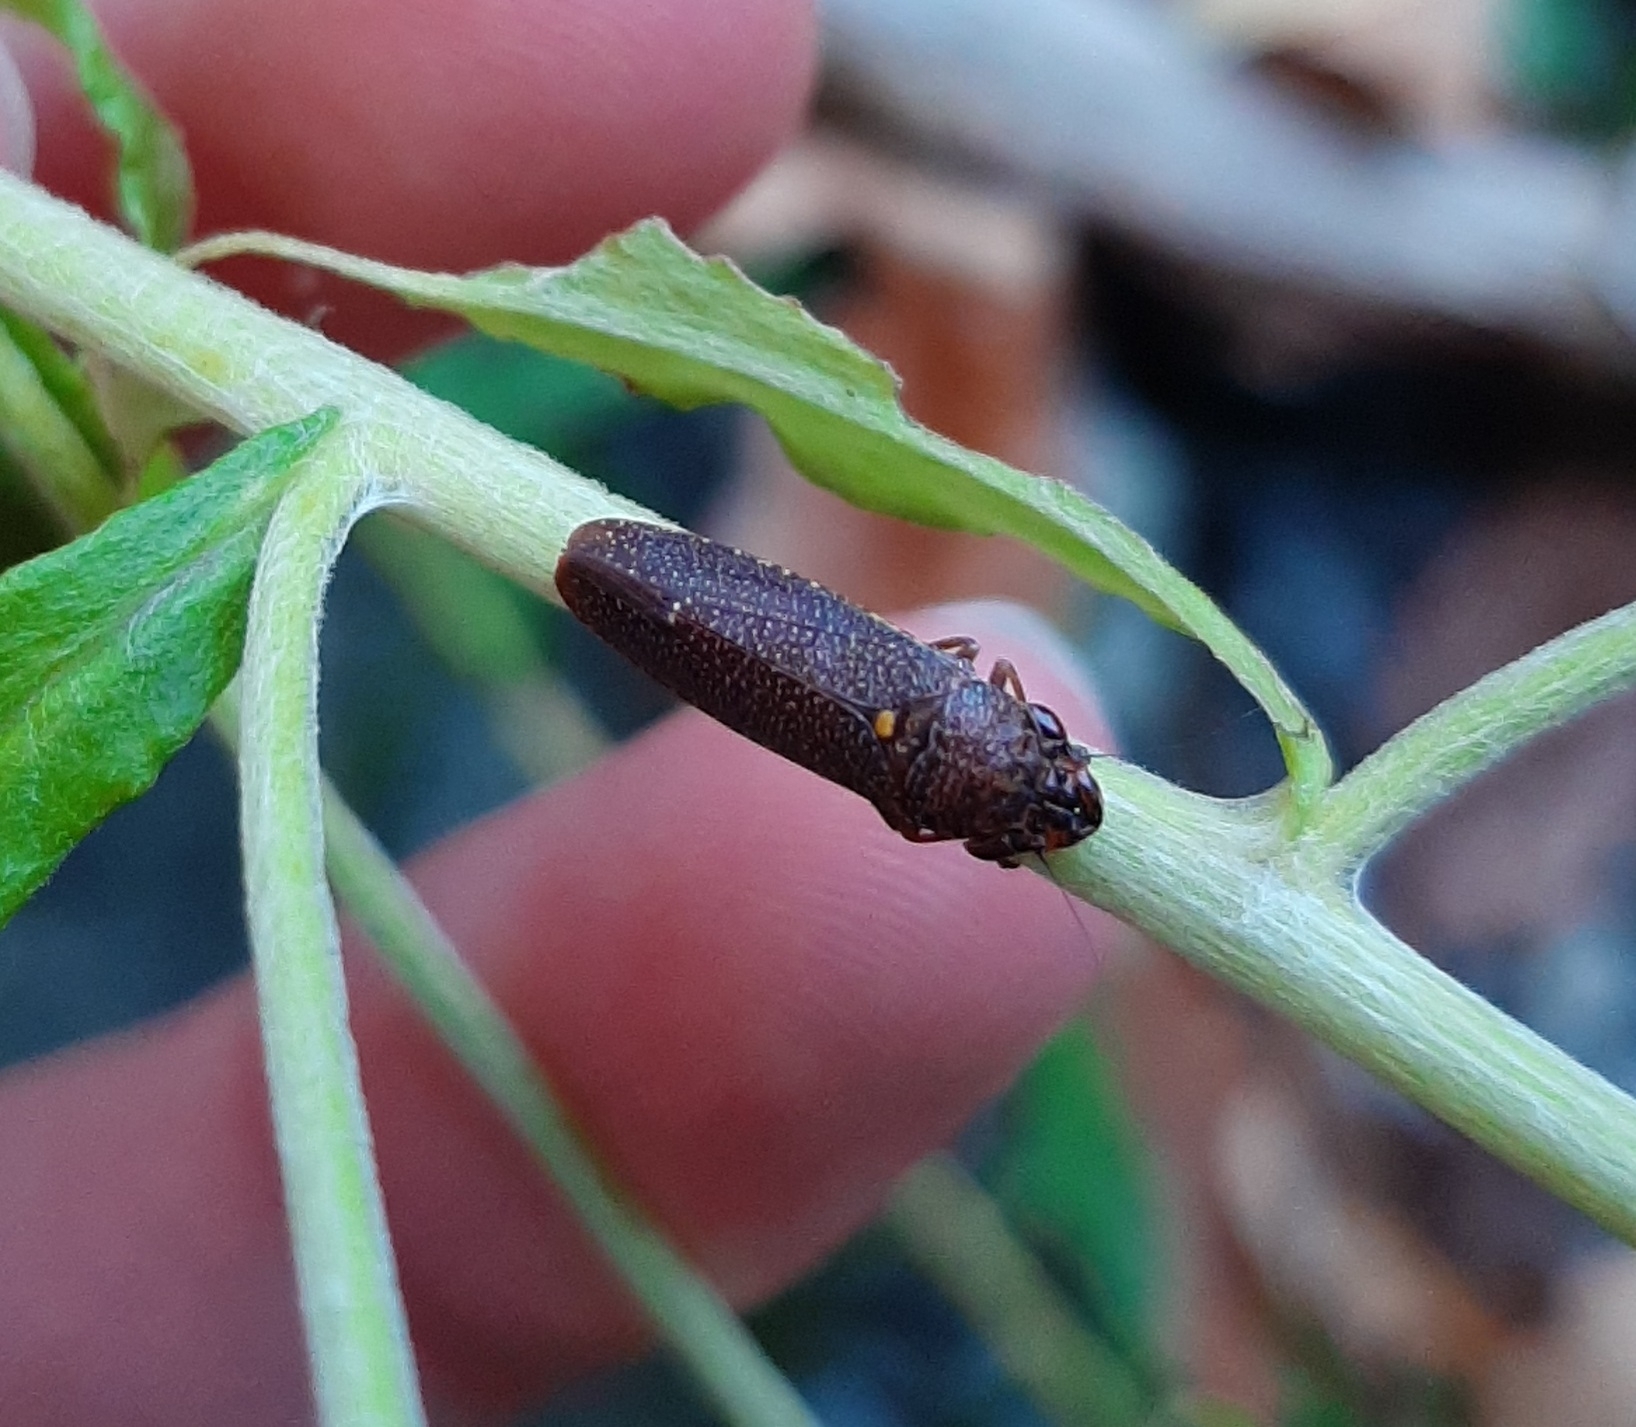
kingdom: Animalia
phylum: Arthropoda
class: Insecta
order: Hemiptera
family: Cicadellidae
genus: Paraulacizes
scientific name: Paraulacizes irrorata
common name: Speckled sharpshooter
